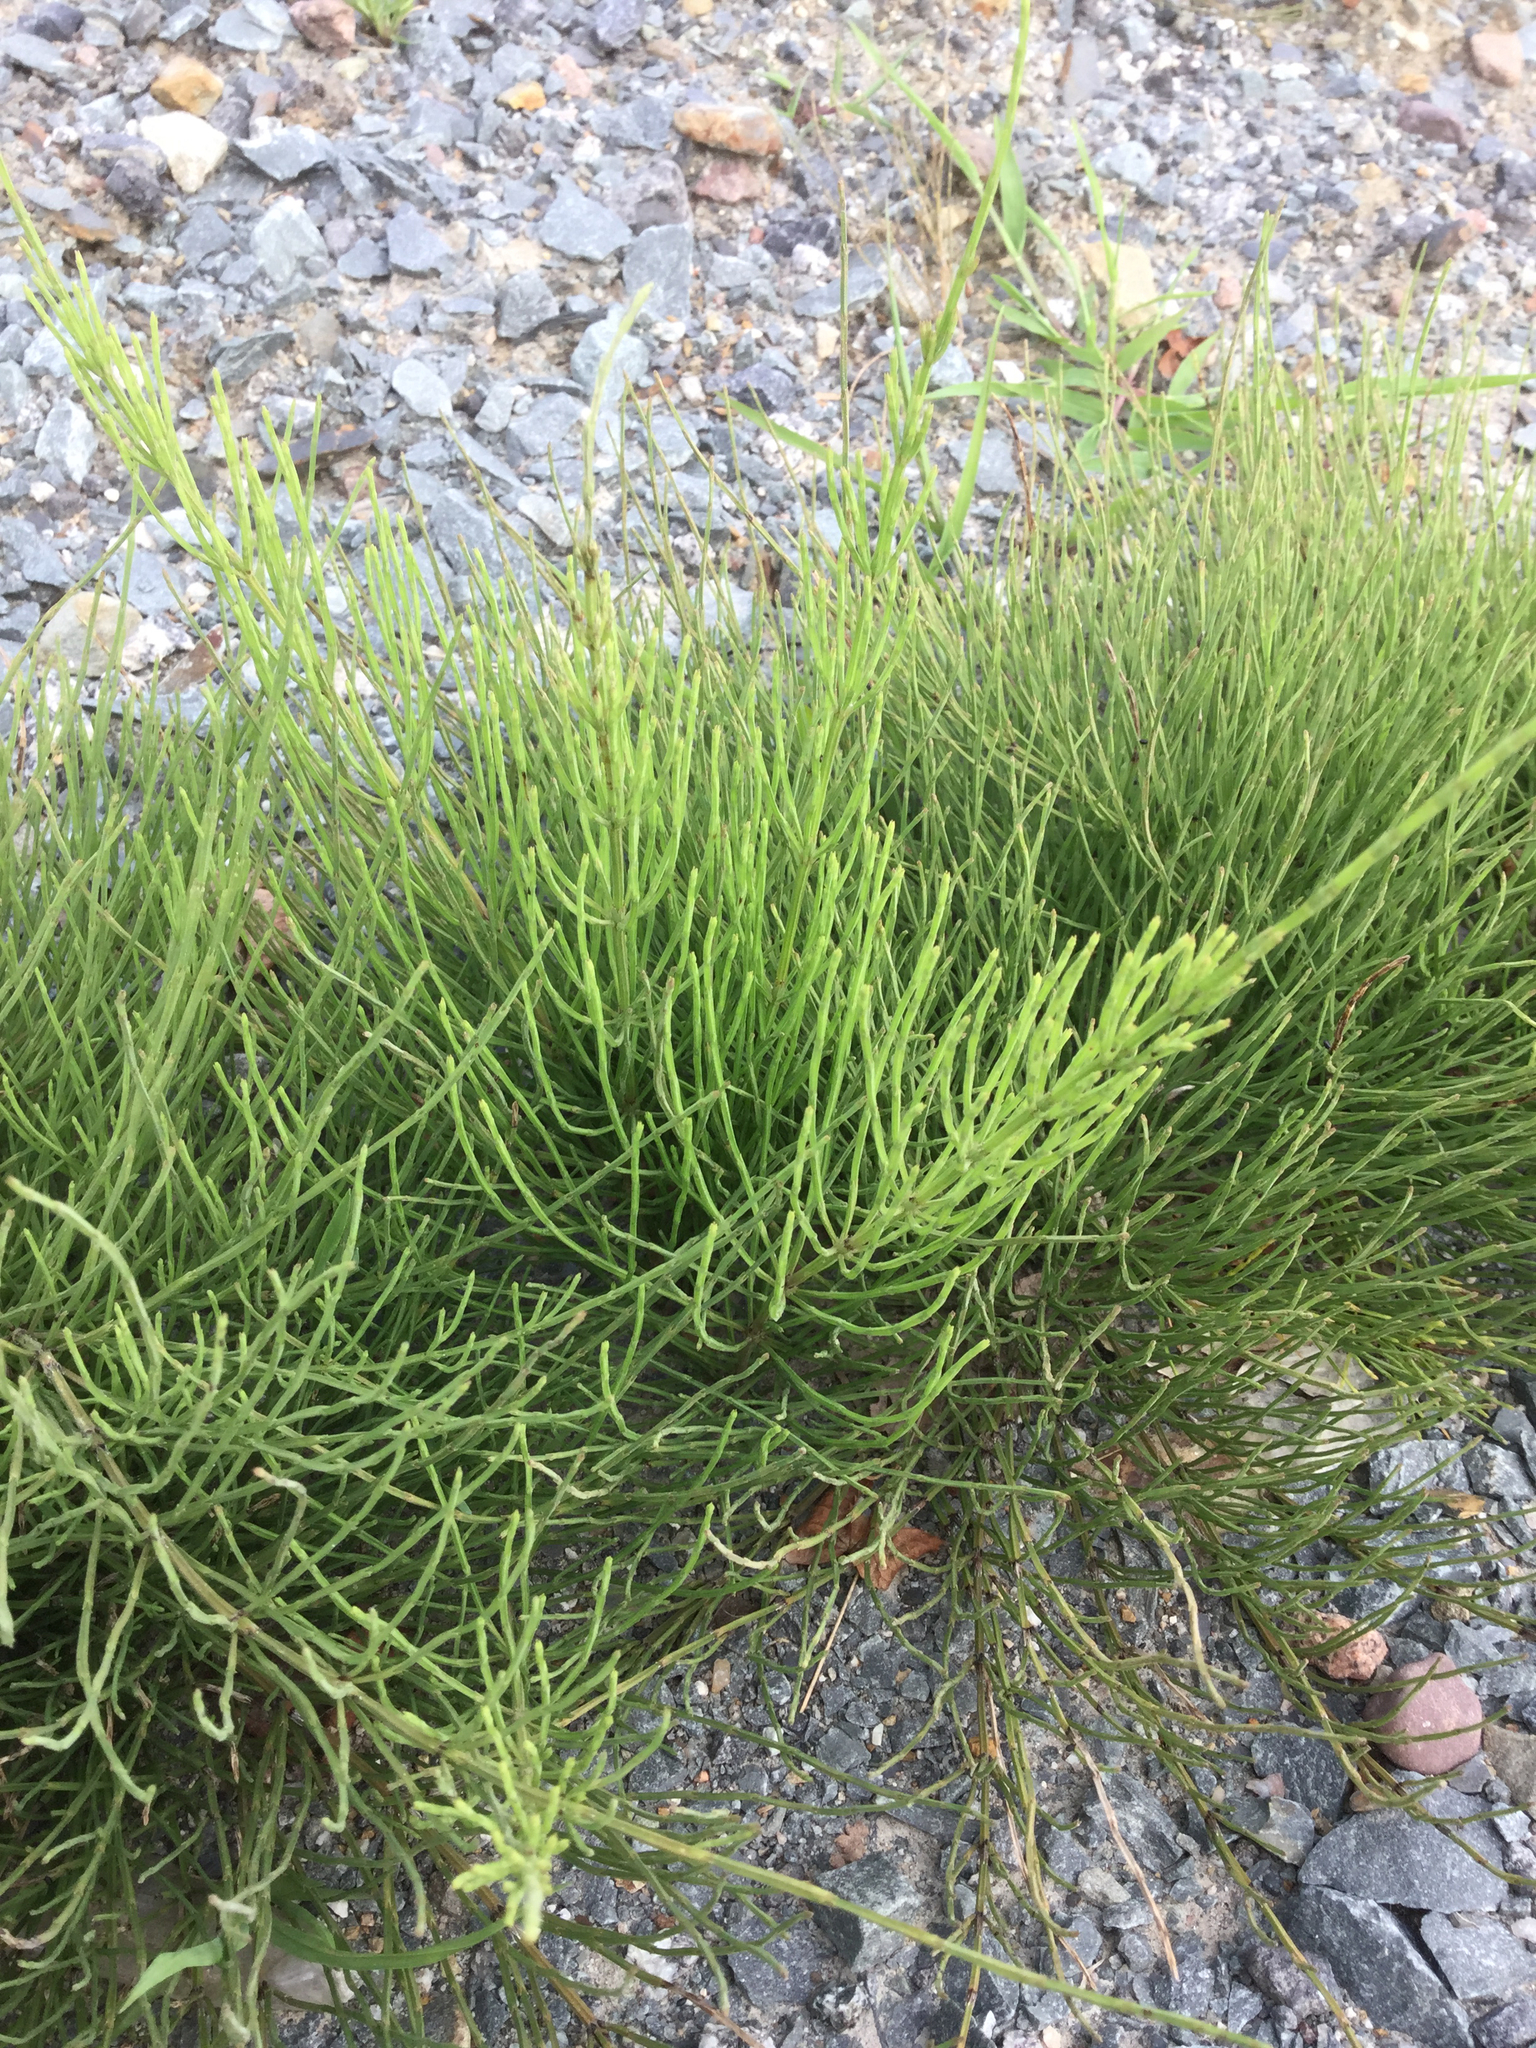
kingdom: Plantae
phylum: Tracheophyta
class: Polypodiopsida
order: Equisetales
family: Equisetaceae
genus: Equisetum
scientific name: Equisetum arvense
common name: Field horsetail
